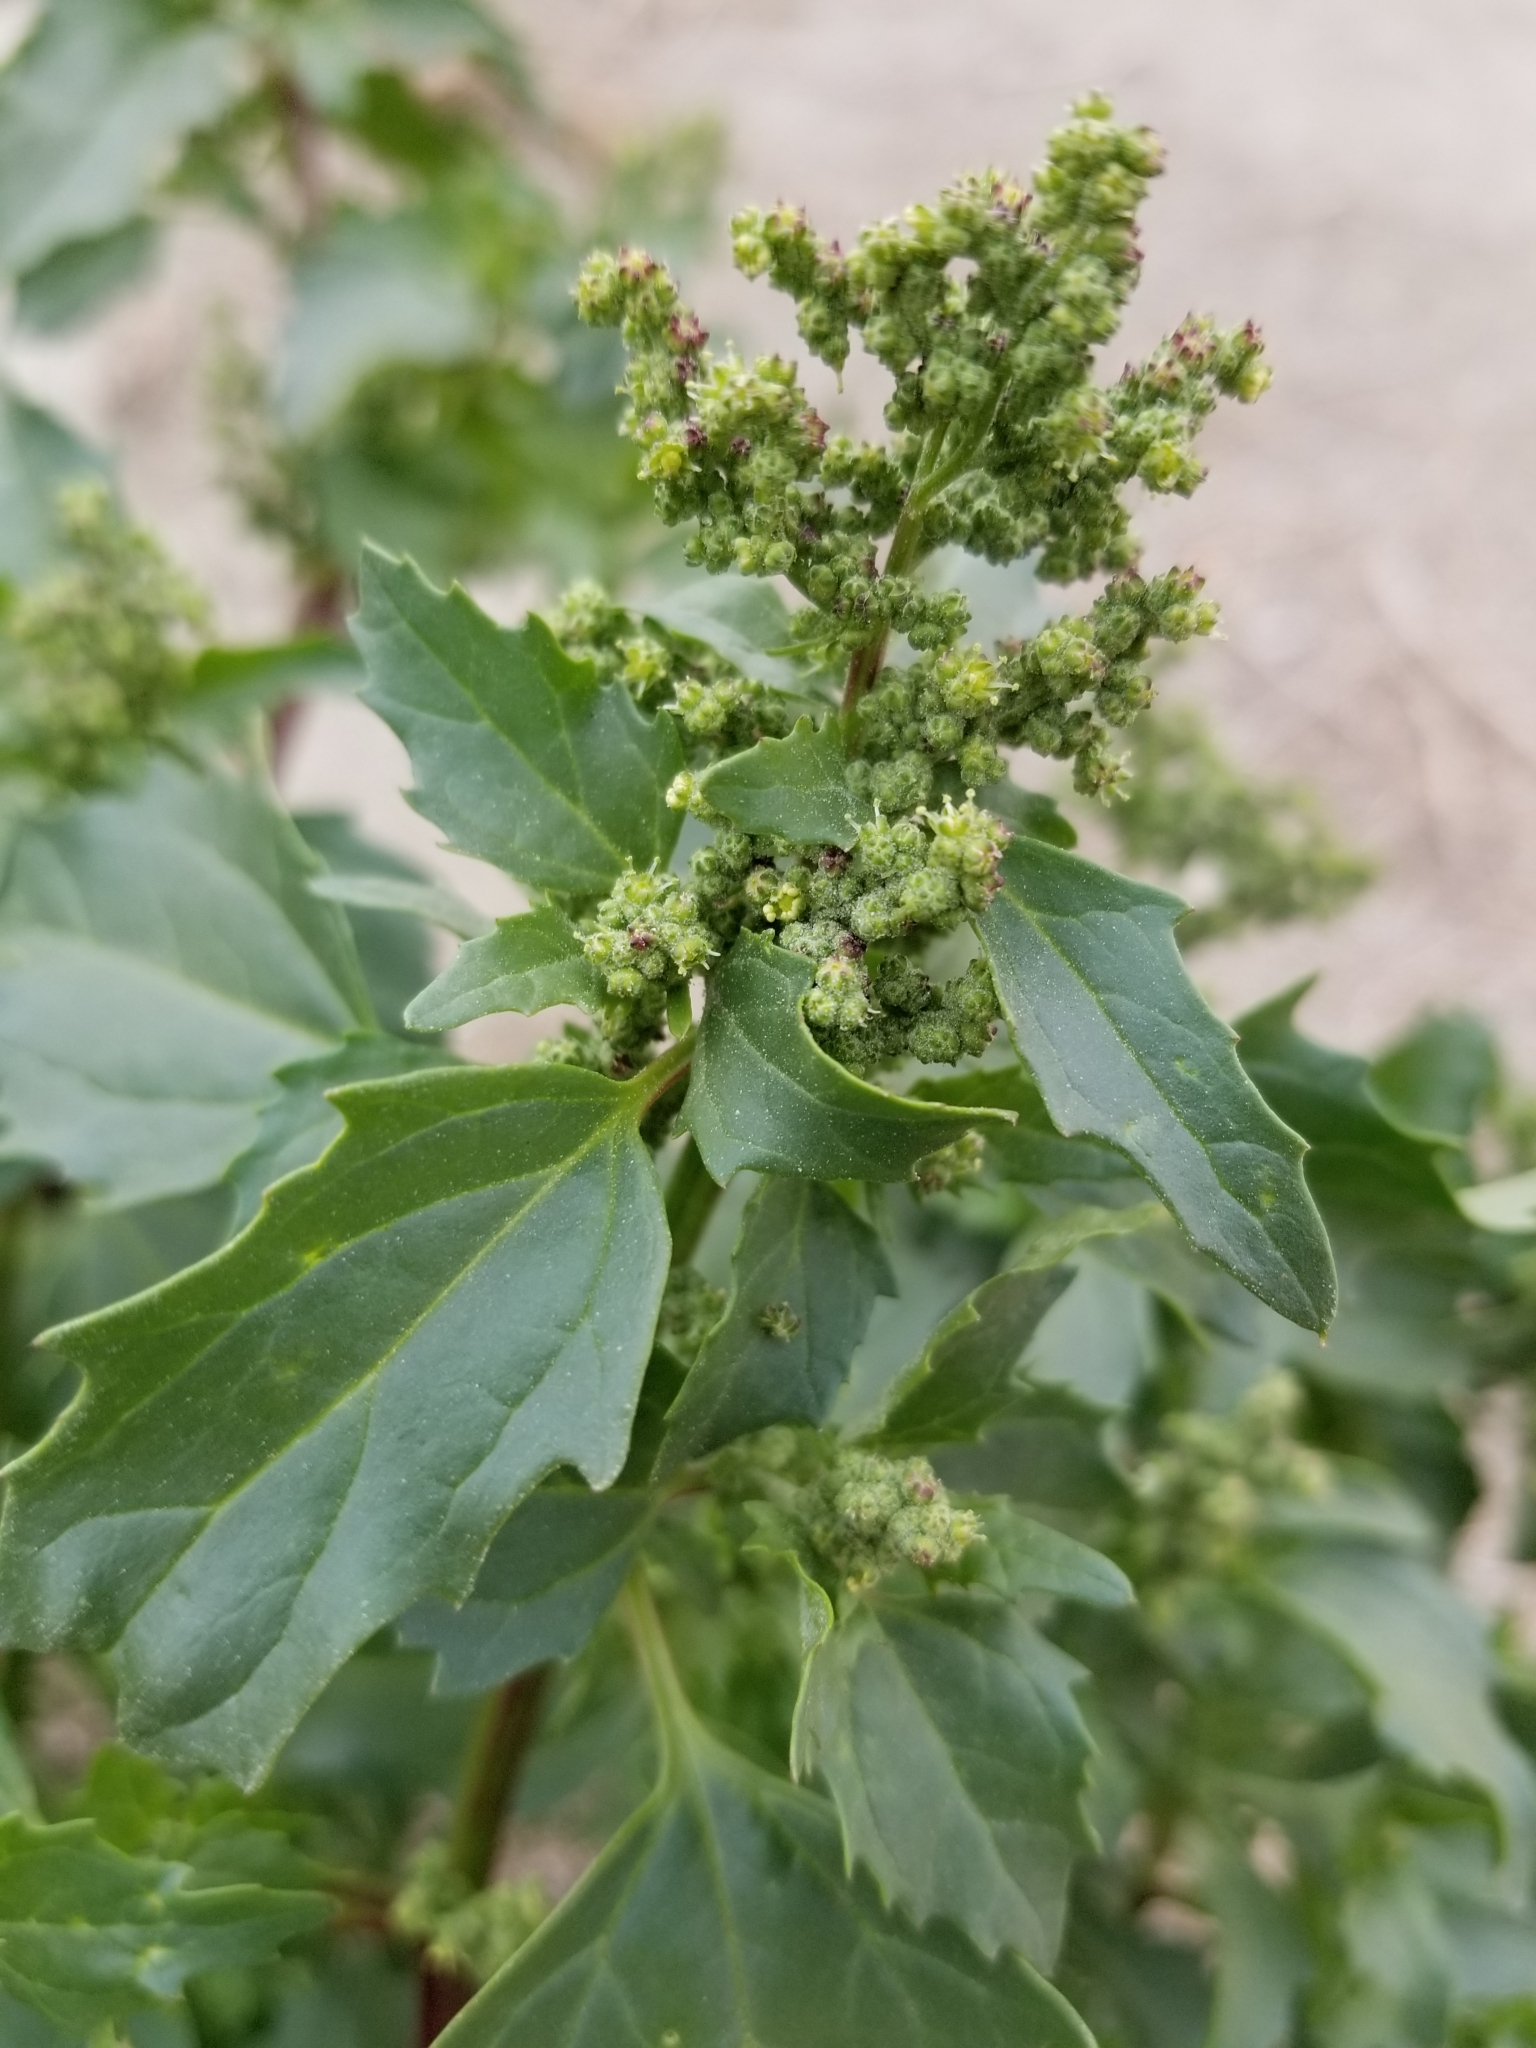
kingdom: Plantae
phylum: Tracheophyta
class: Magnoliopsida
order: Caryophyllales
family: Amaranthaceae
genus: Chenopodiastrum
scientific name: Chenopodiastrum murale
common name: Sowbane
